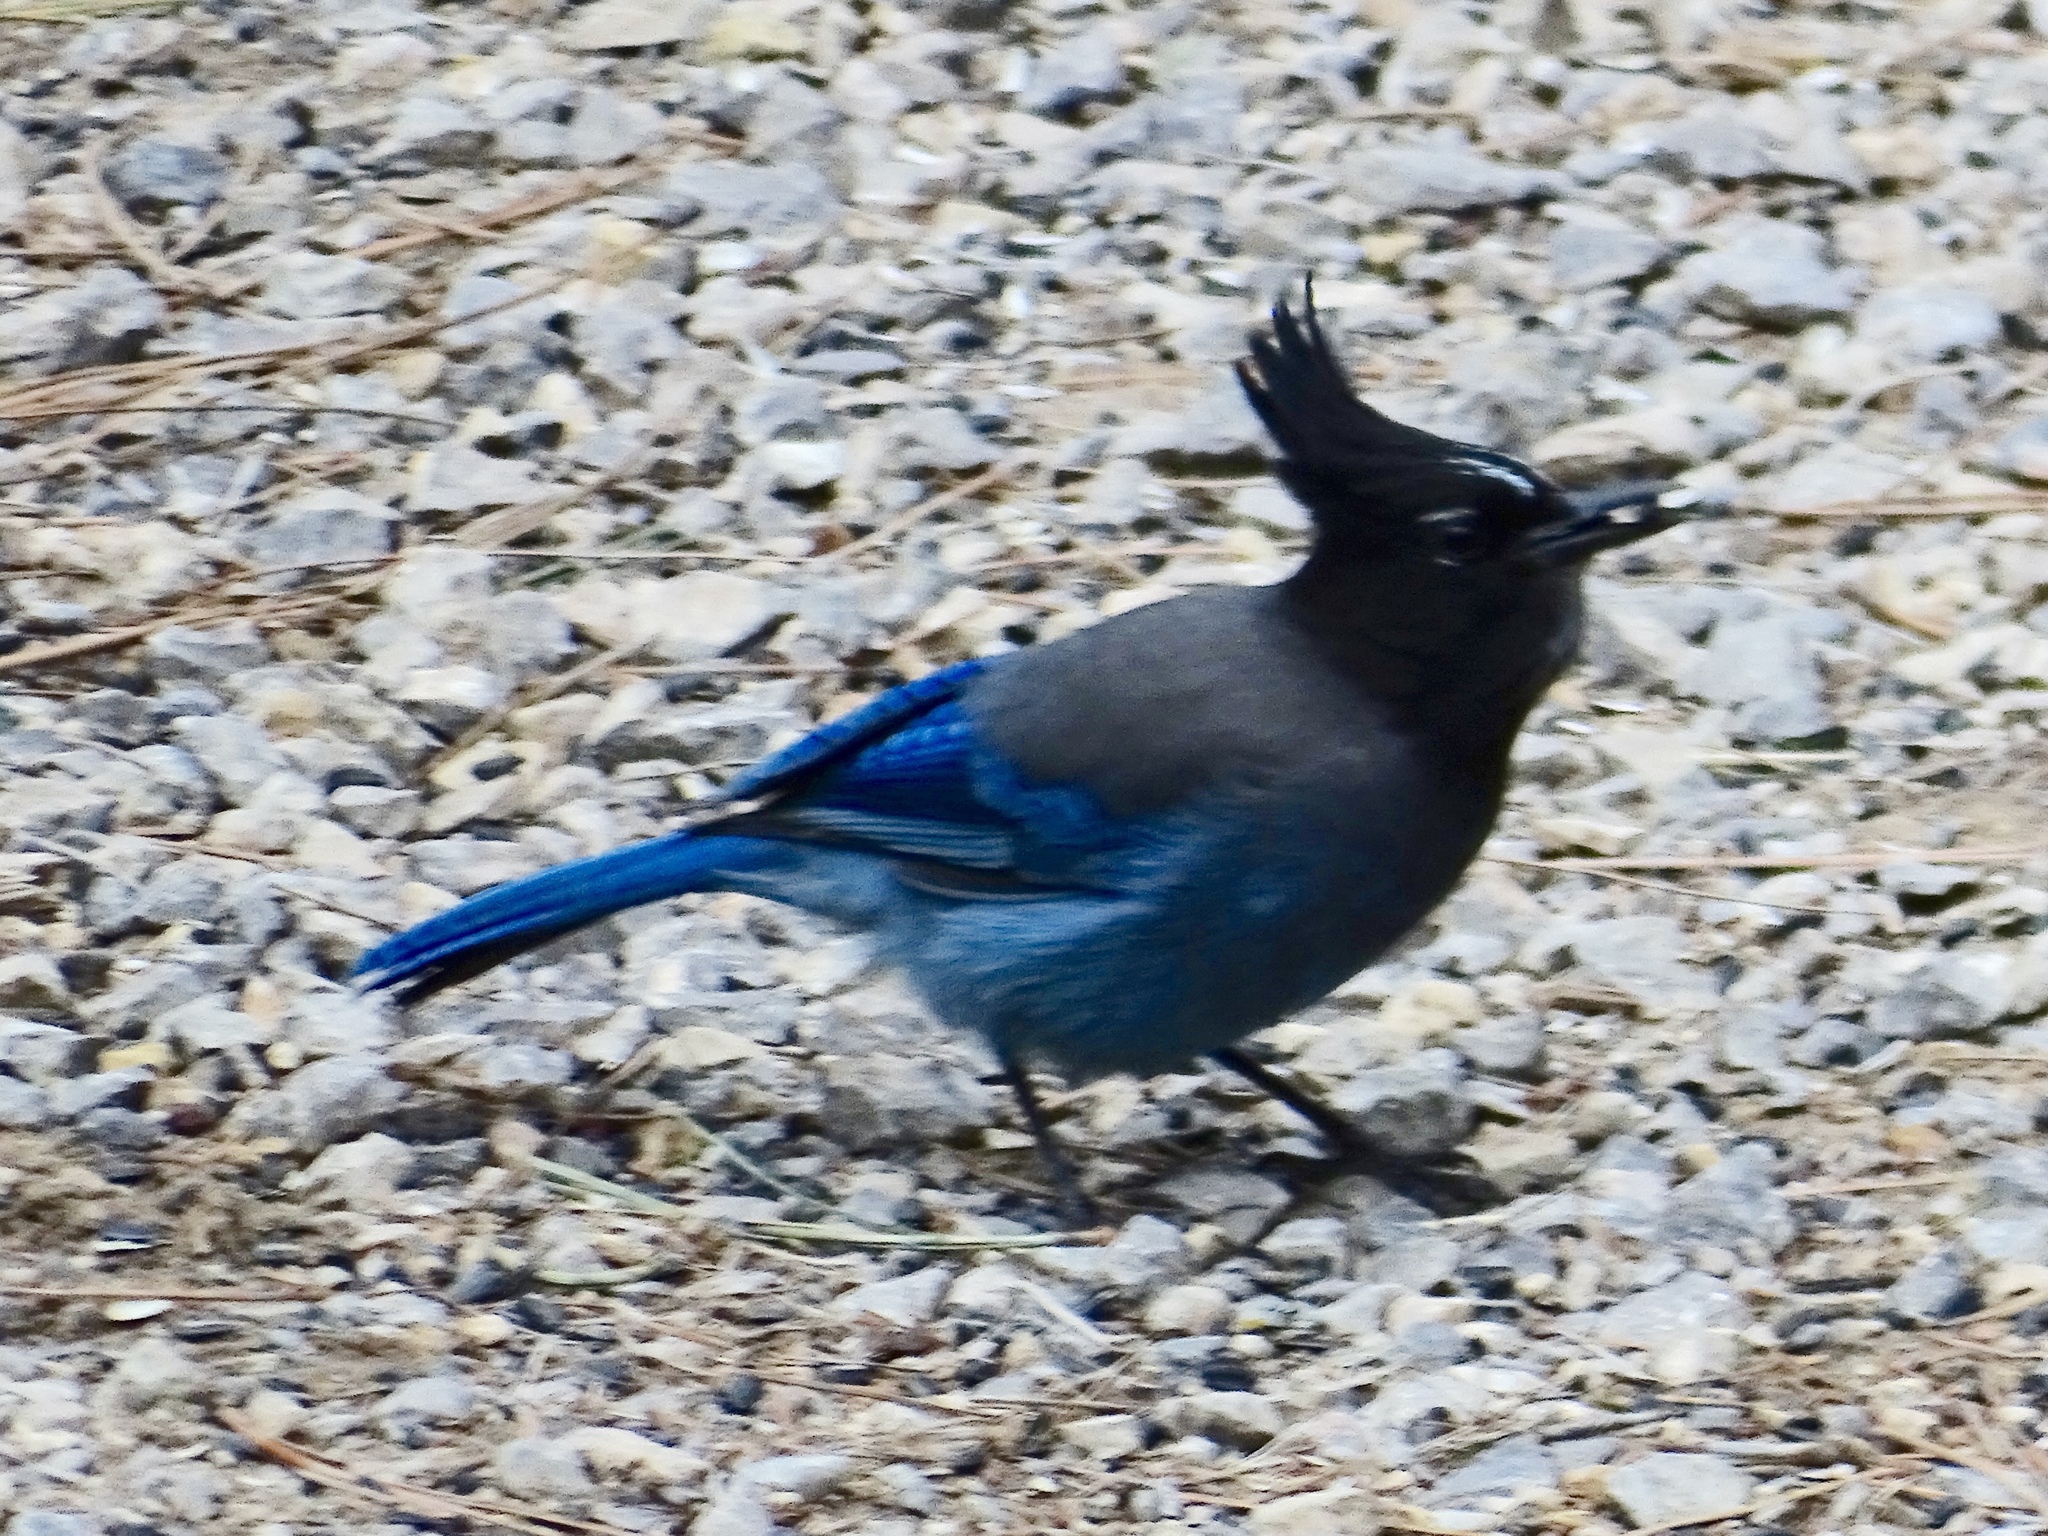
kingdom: Animalia
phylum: Chordata
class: Aves
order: Passeriformes
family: Corvidae
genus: Cyanocitta
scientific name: Cyanocitta stelleri
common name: Steller's jay
